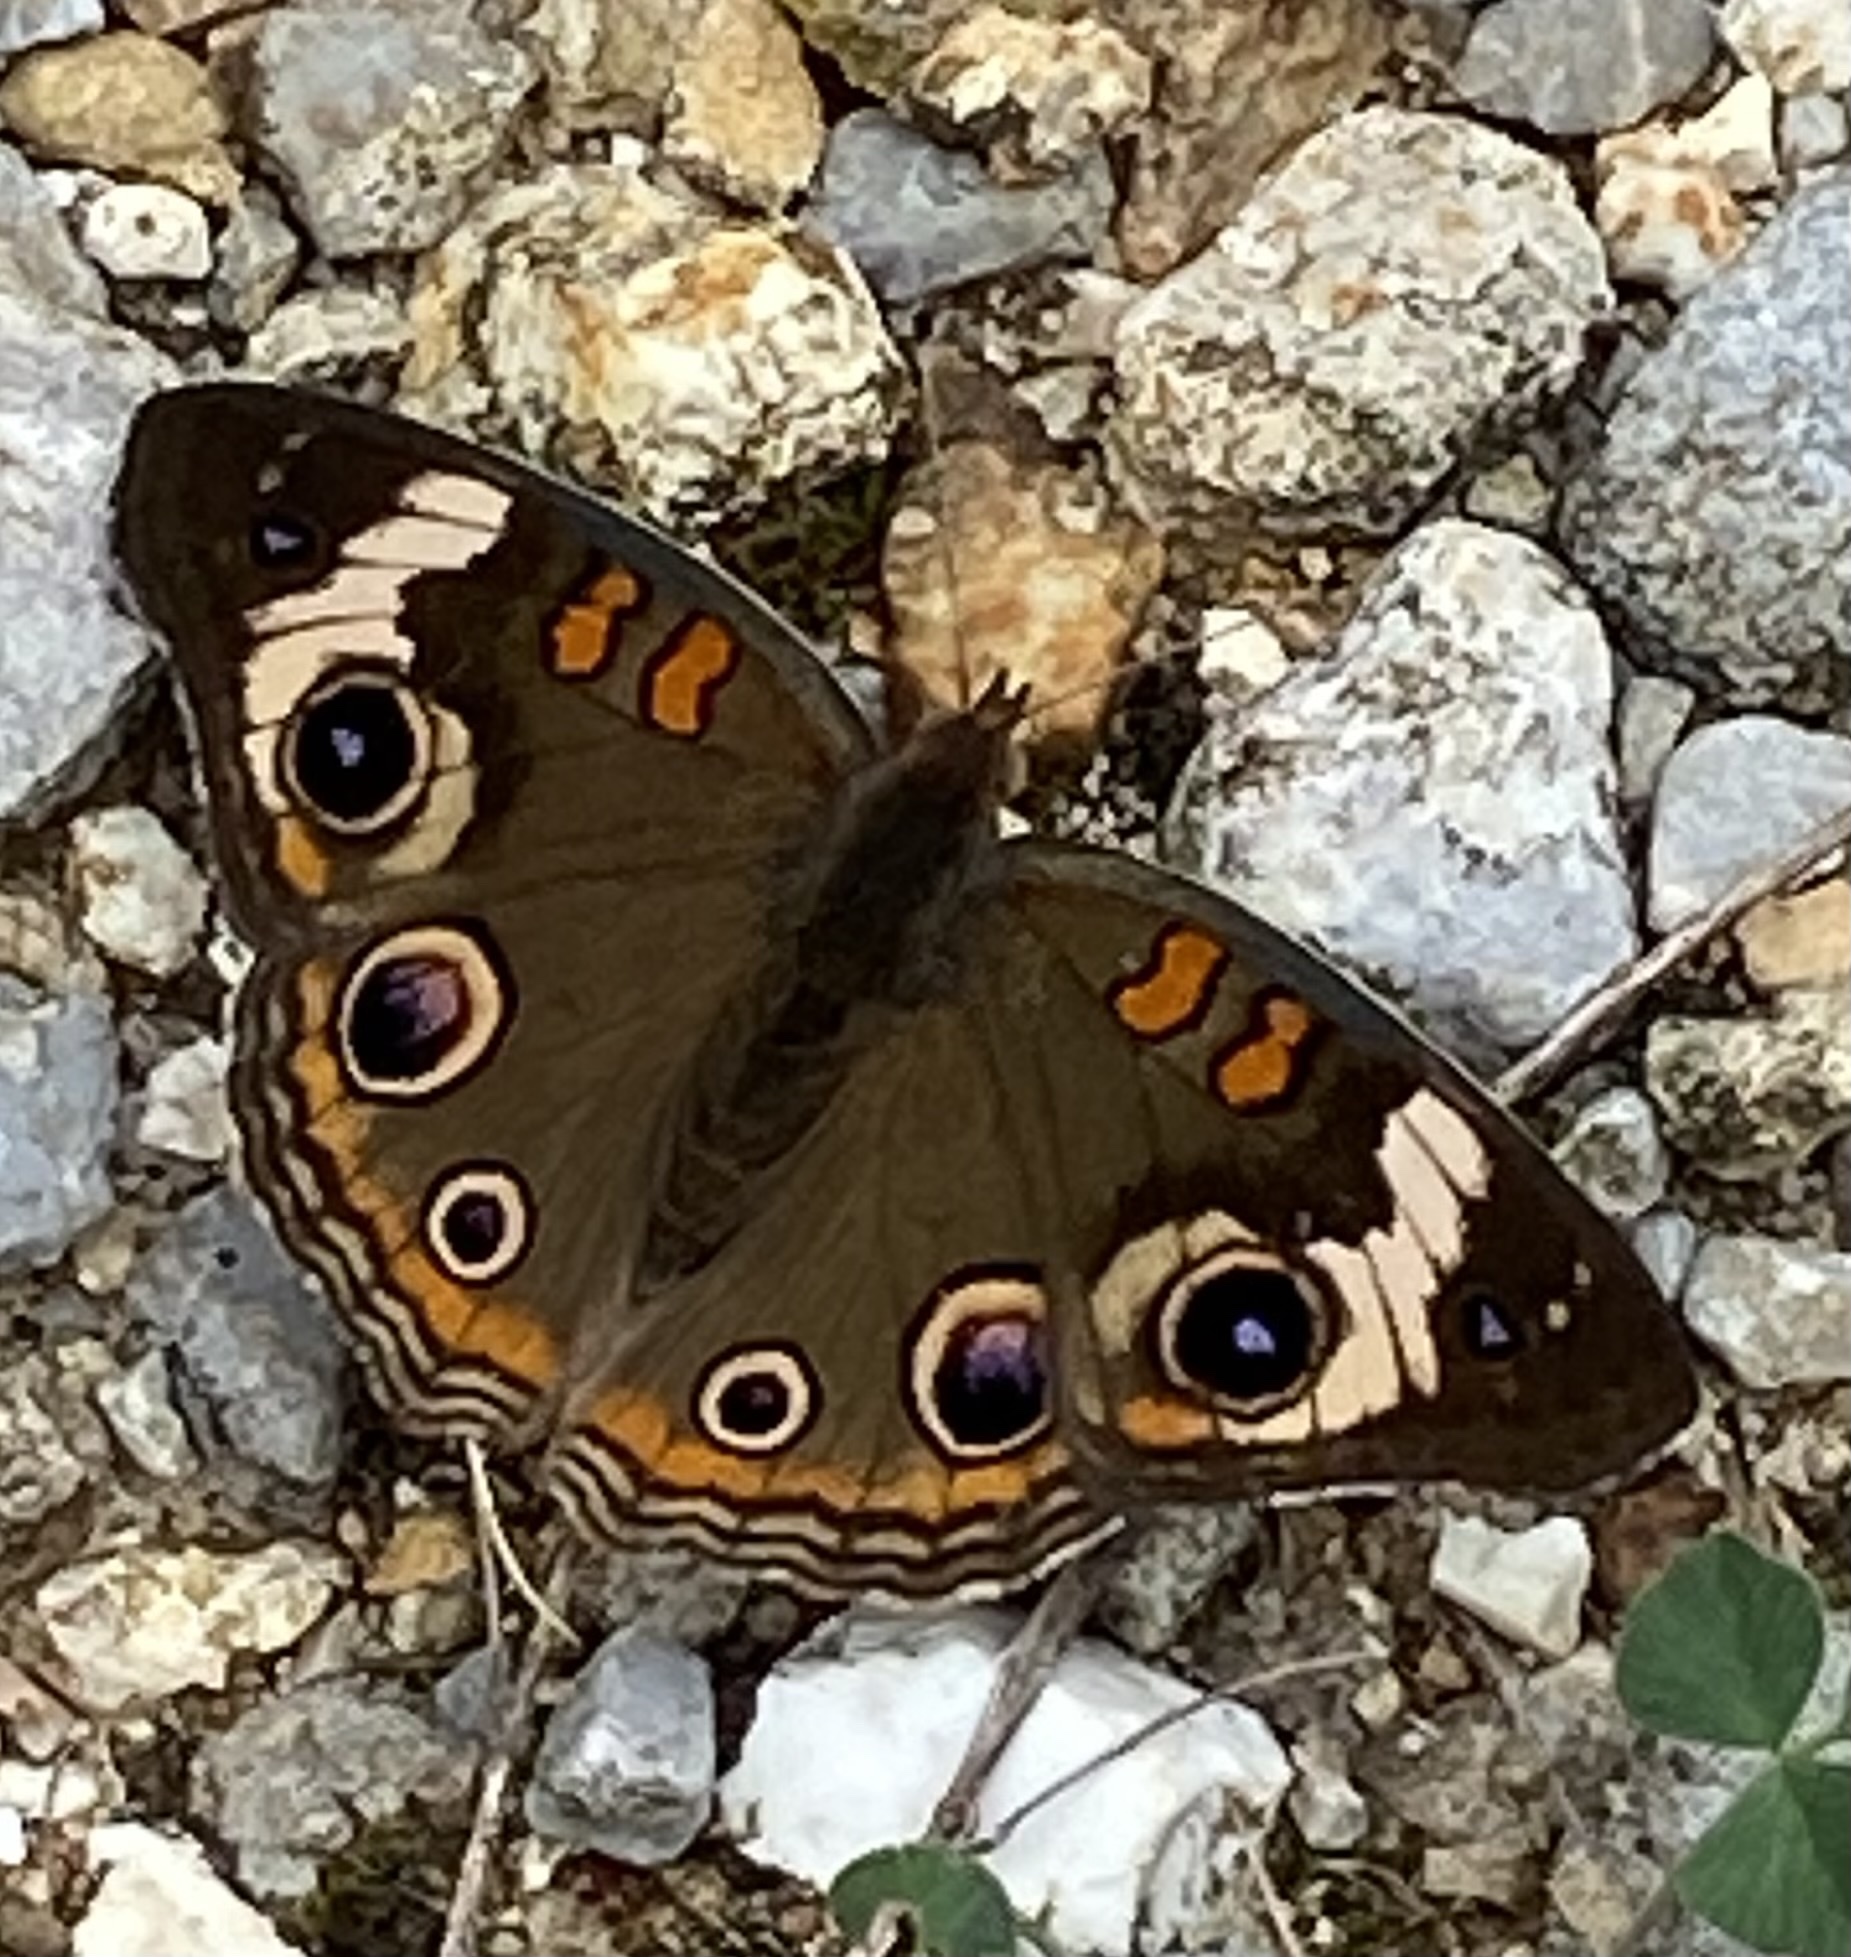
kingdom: Animalia
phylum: Arthropoda
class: Insecta
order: Lepidoptera
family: Nymphalidae
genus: Junonia
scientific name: Junonia coenia
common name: Common buckeye
